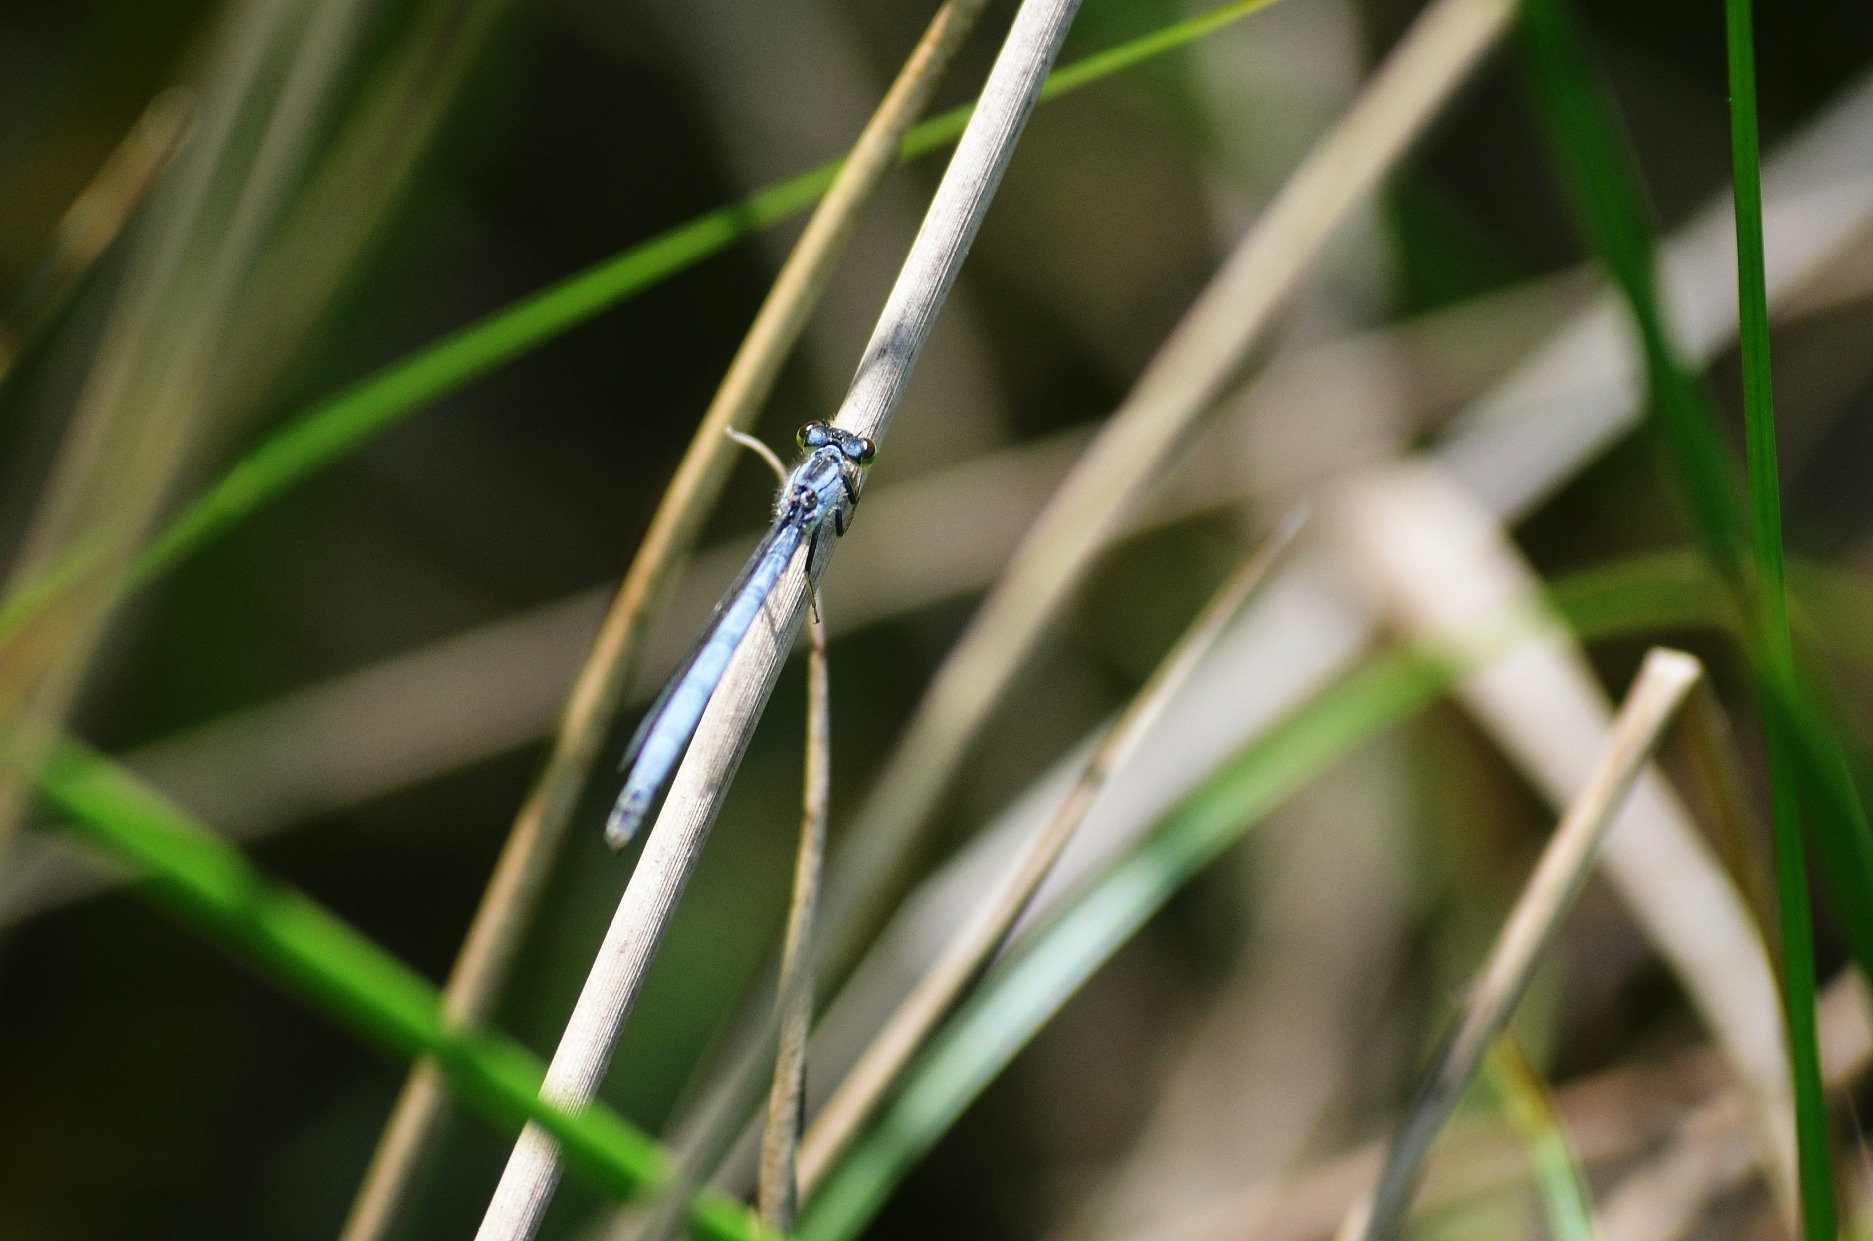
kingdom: Animalia
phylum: Arthropoda
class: Insecta
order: Odonata
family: Coenagrionidae
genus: Ischnura
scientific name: Ischnura verticalis
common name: Eastern forktail
